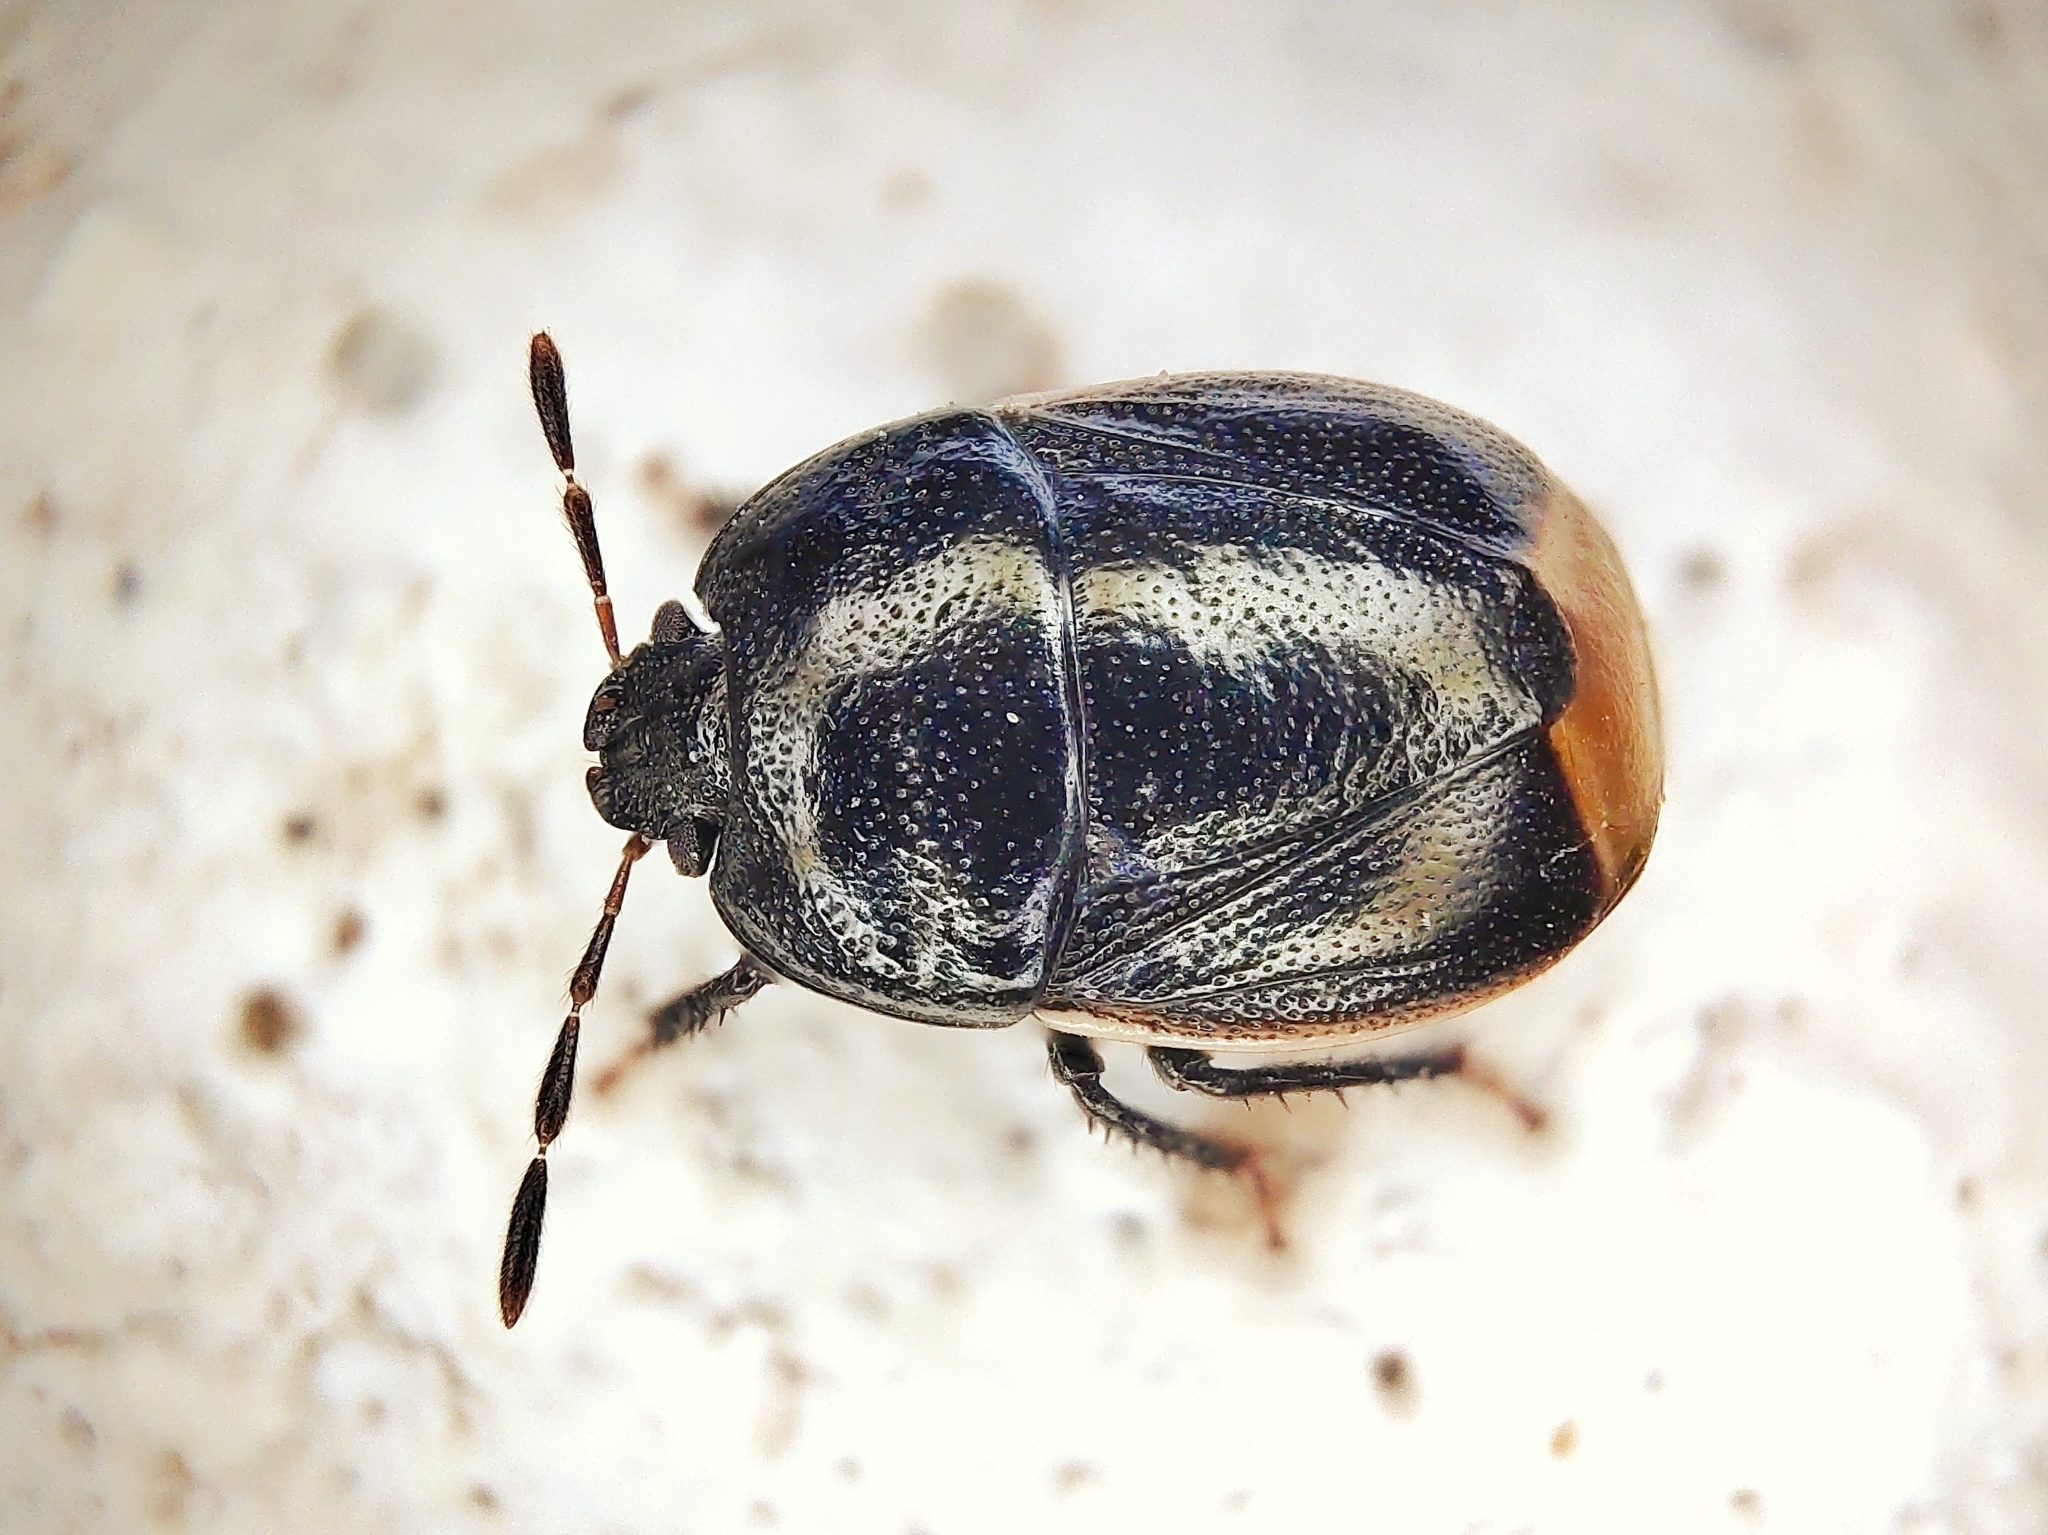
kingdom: Animalia
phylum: Arthropoda
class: Insecta
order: Hemiptera
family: Cydnidae
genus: Legnotus
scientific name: Legnotus limbosus
